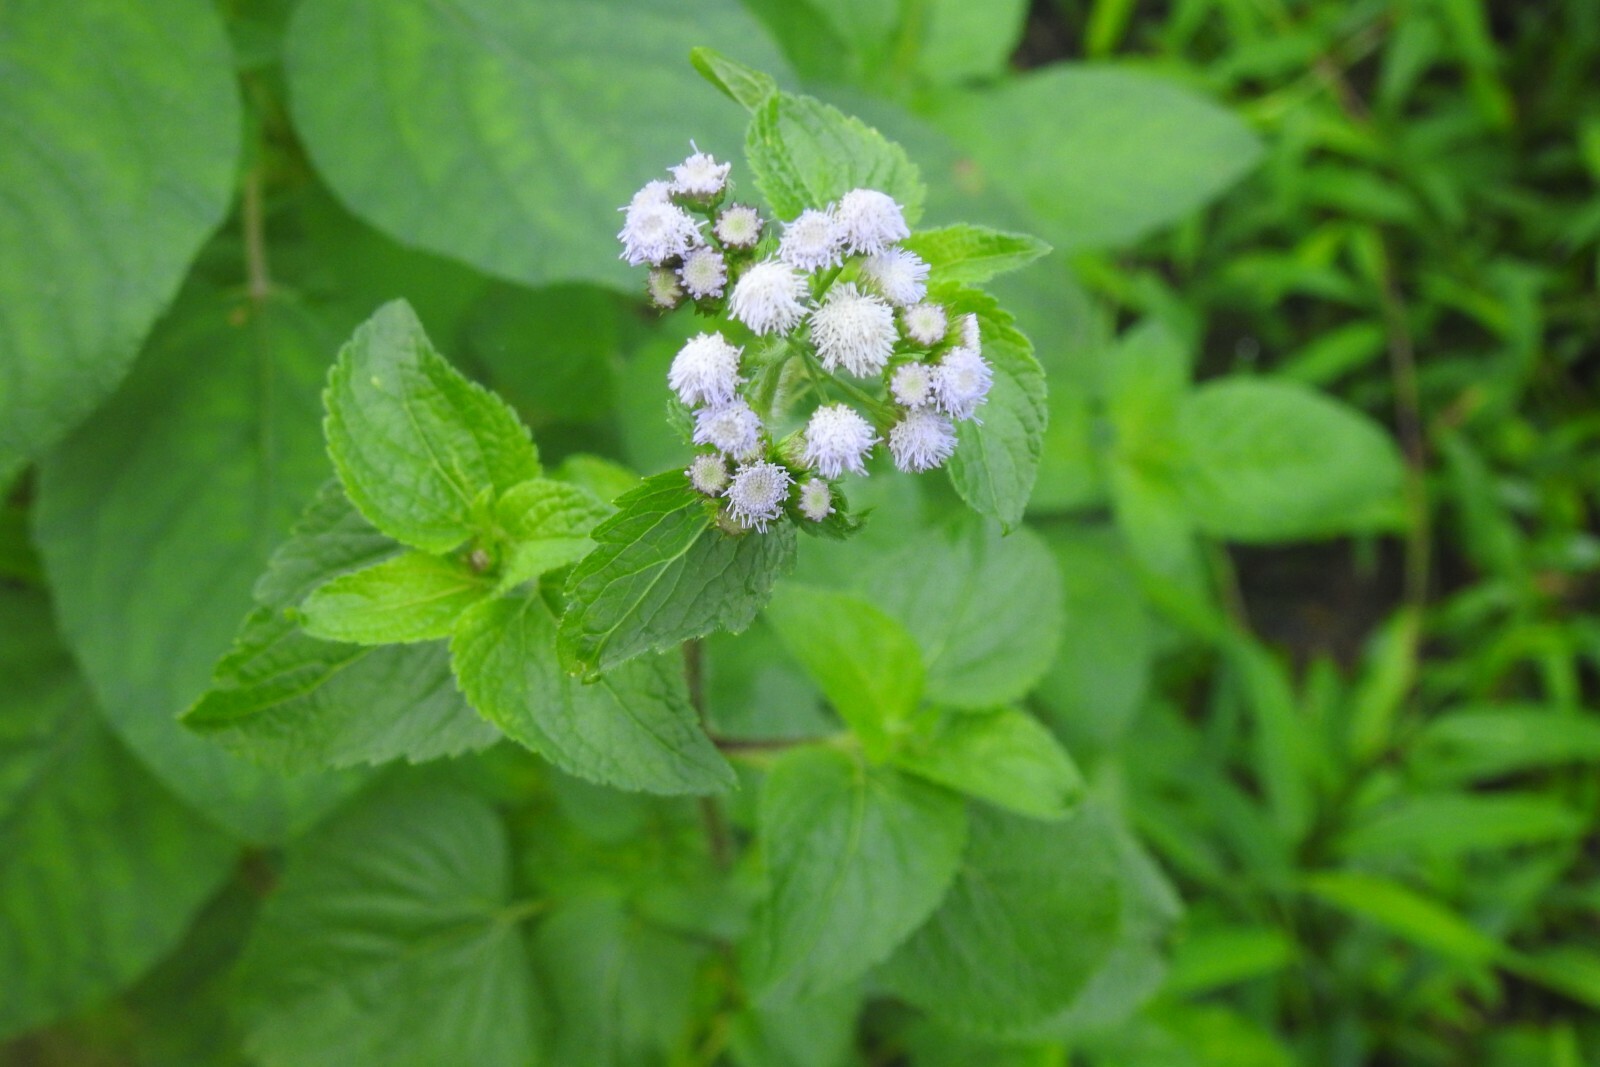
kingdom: Plantae
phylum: Tracheophyta
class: Magnoliopsida
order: Asterales
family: Asteraceae
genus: Ageratum
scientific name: Ageratum conyzoides
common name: Tropical whiteweed
